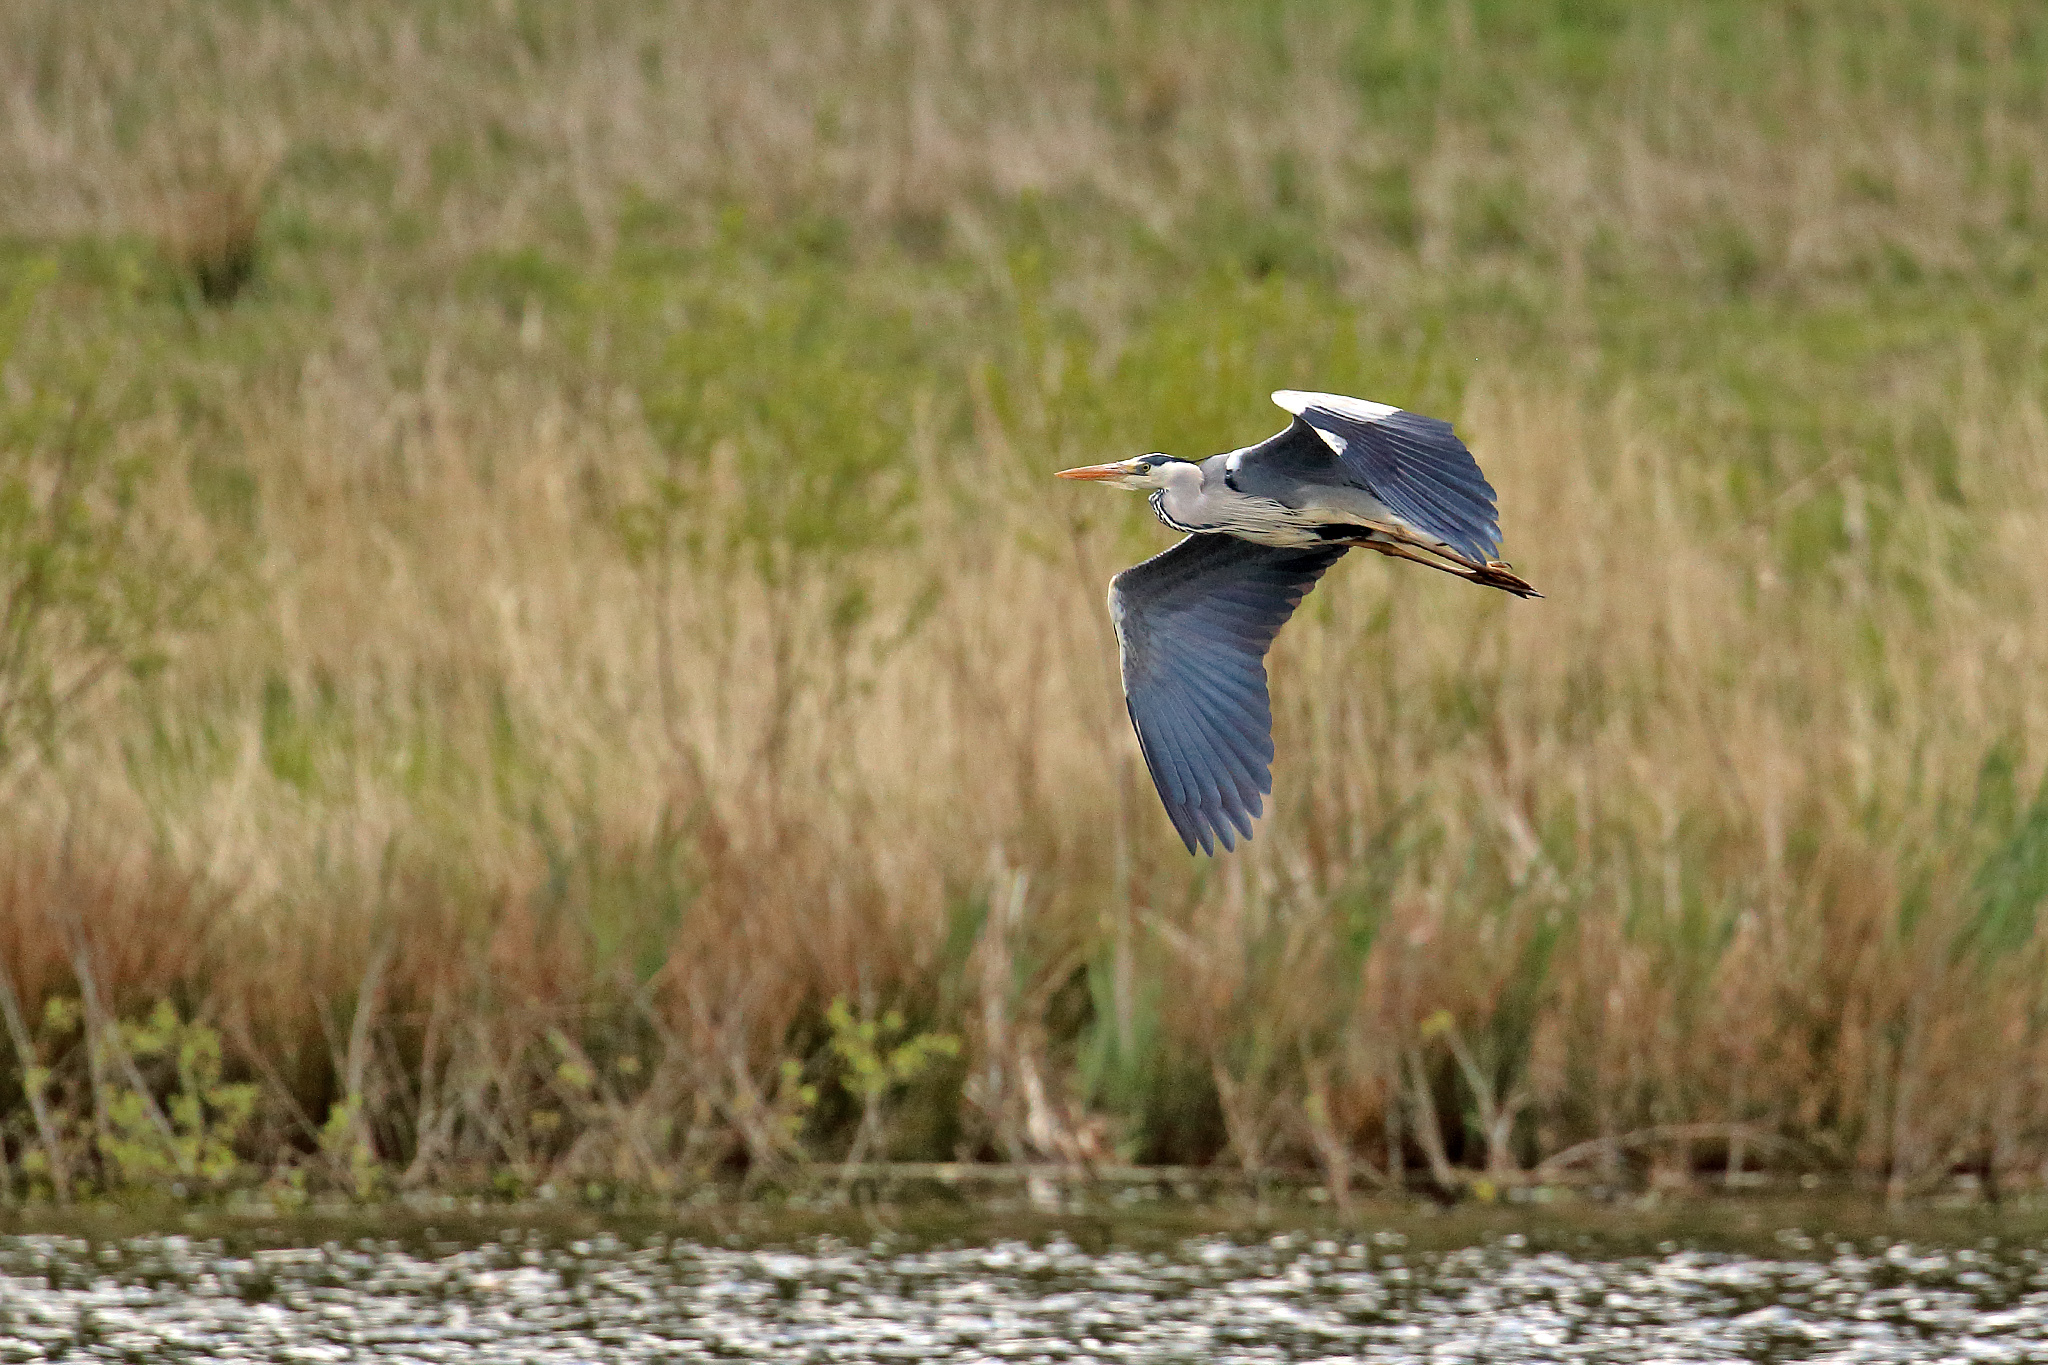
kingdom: Animalia
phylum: Chordata
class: Aves
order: Pelecaniformes
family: Ardeidae
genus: Ardea
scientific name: Ardea cinerea
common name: Grey heron
